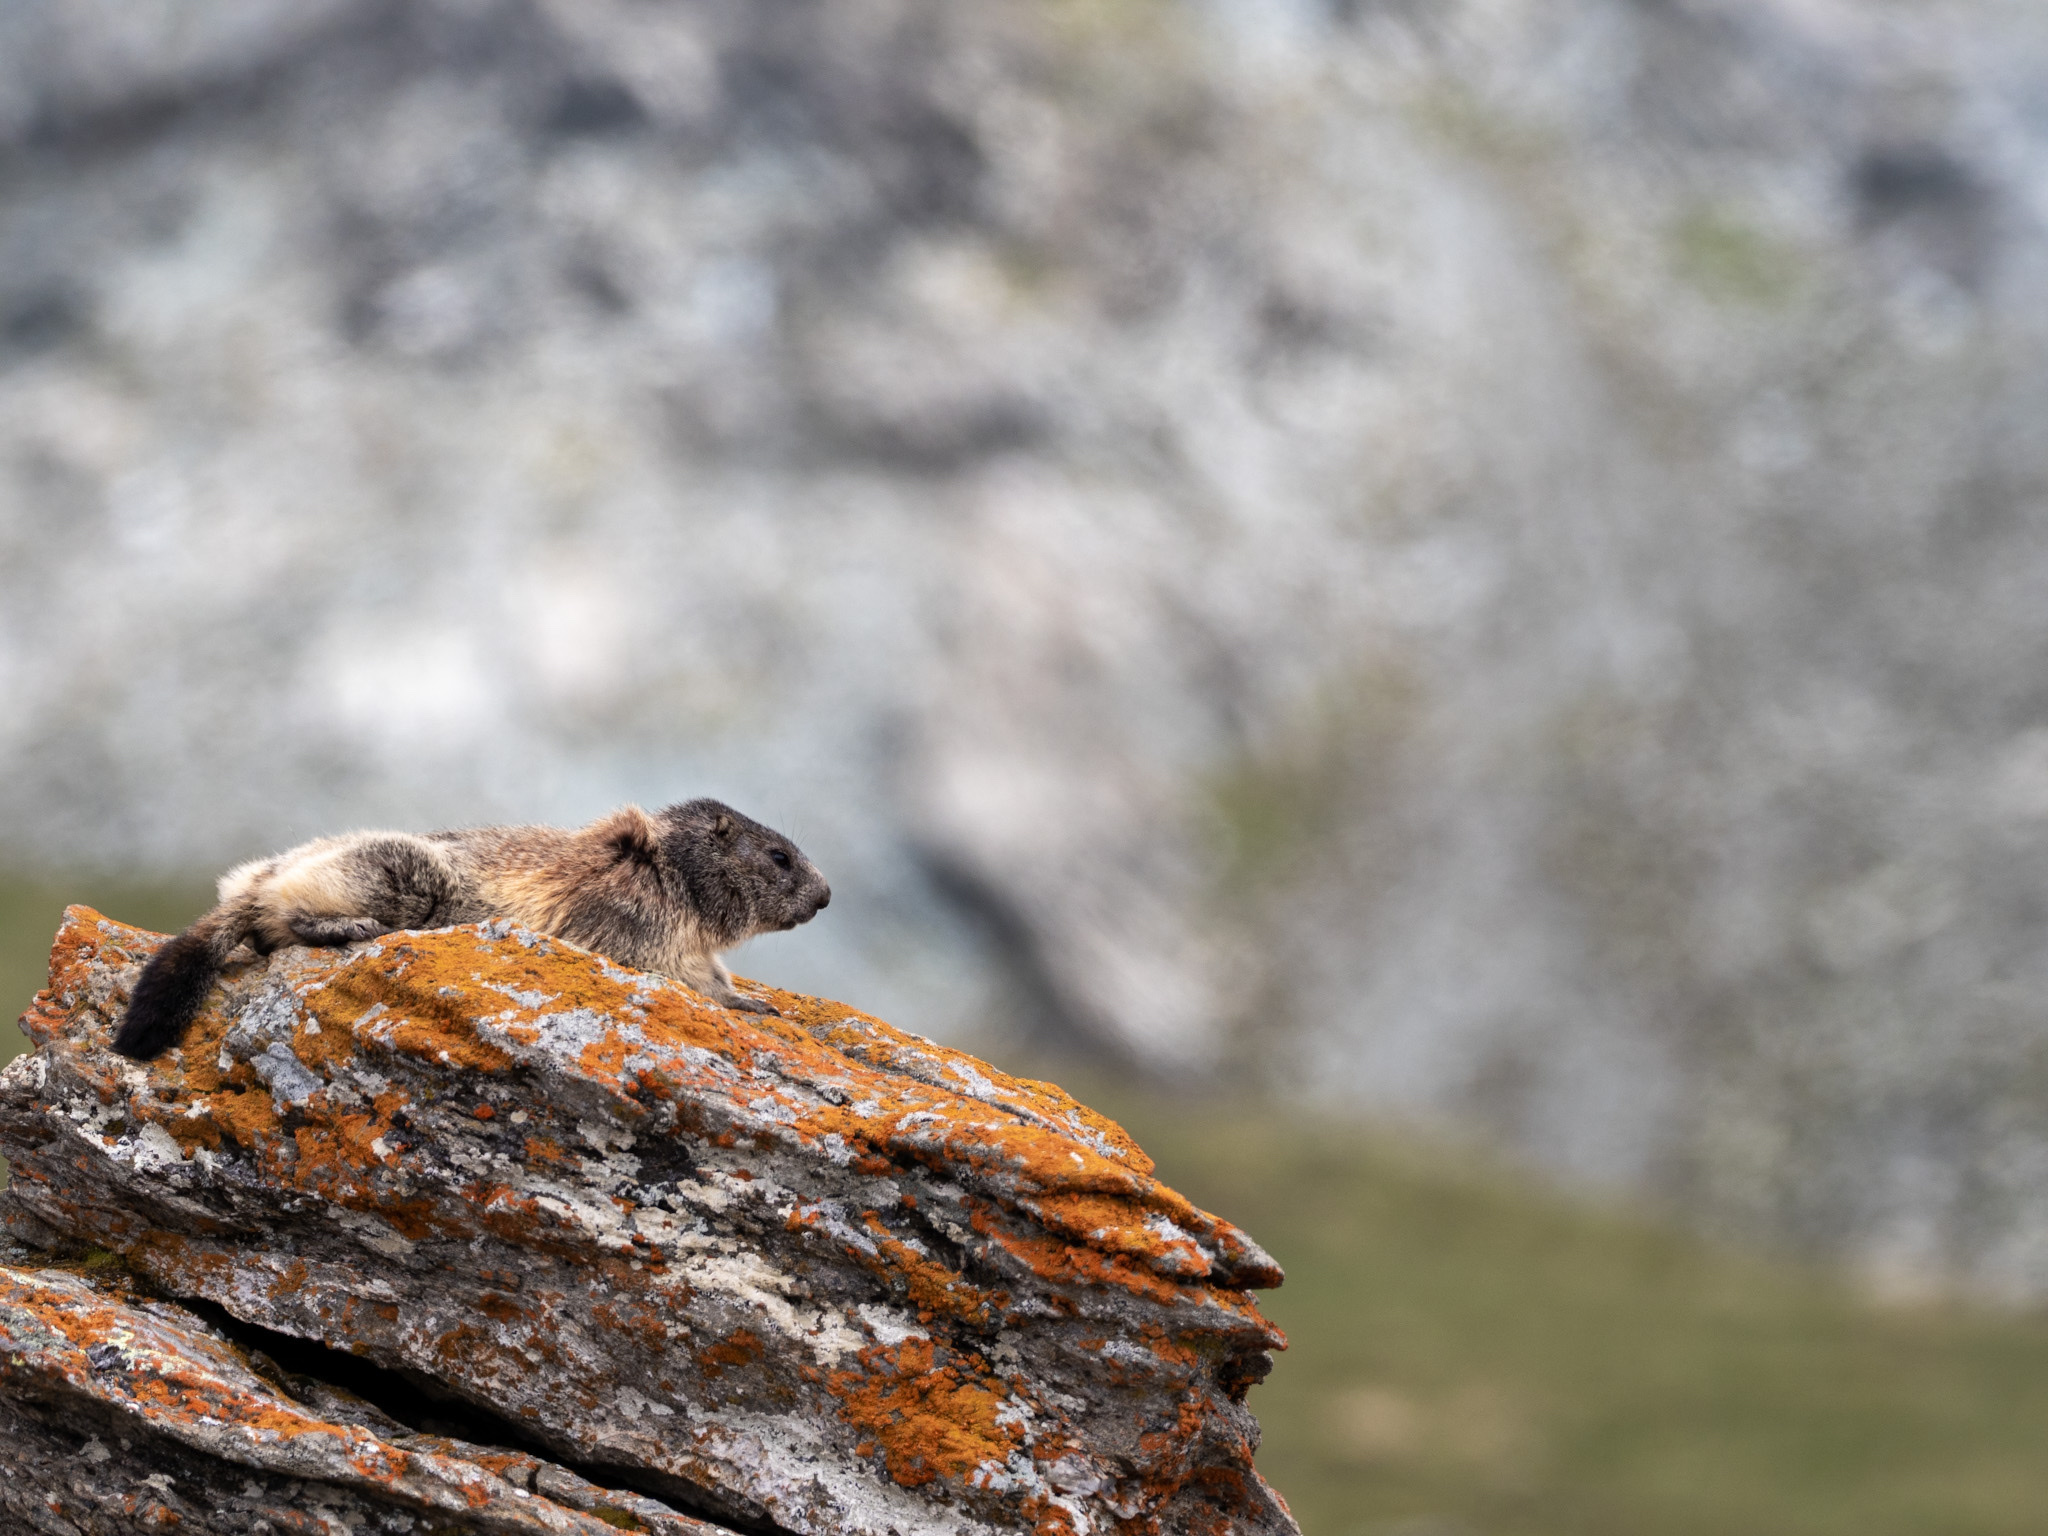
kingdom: Animalia
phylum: Chordata
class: Mammalia
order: Rodentia
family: Sciuridae
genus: Marmota
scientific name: Marmota marmota
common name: Alpine marmot
